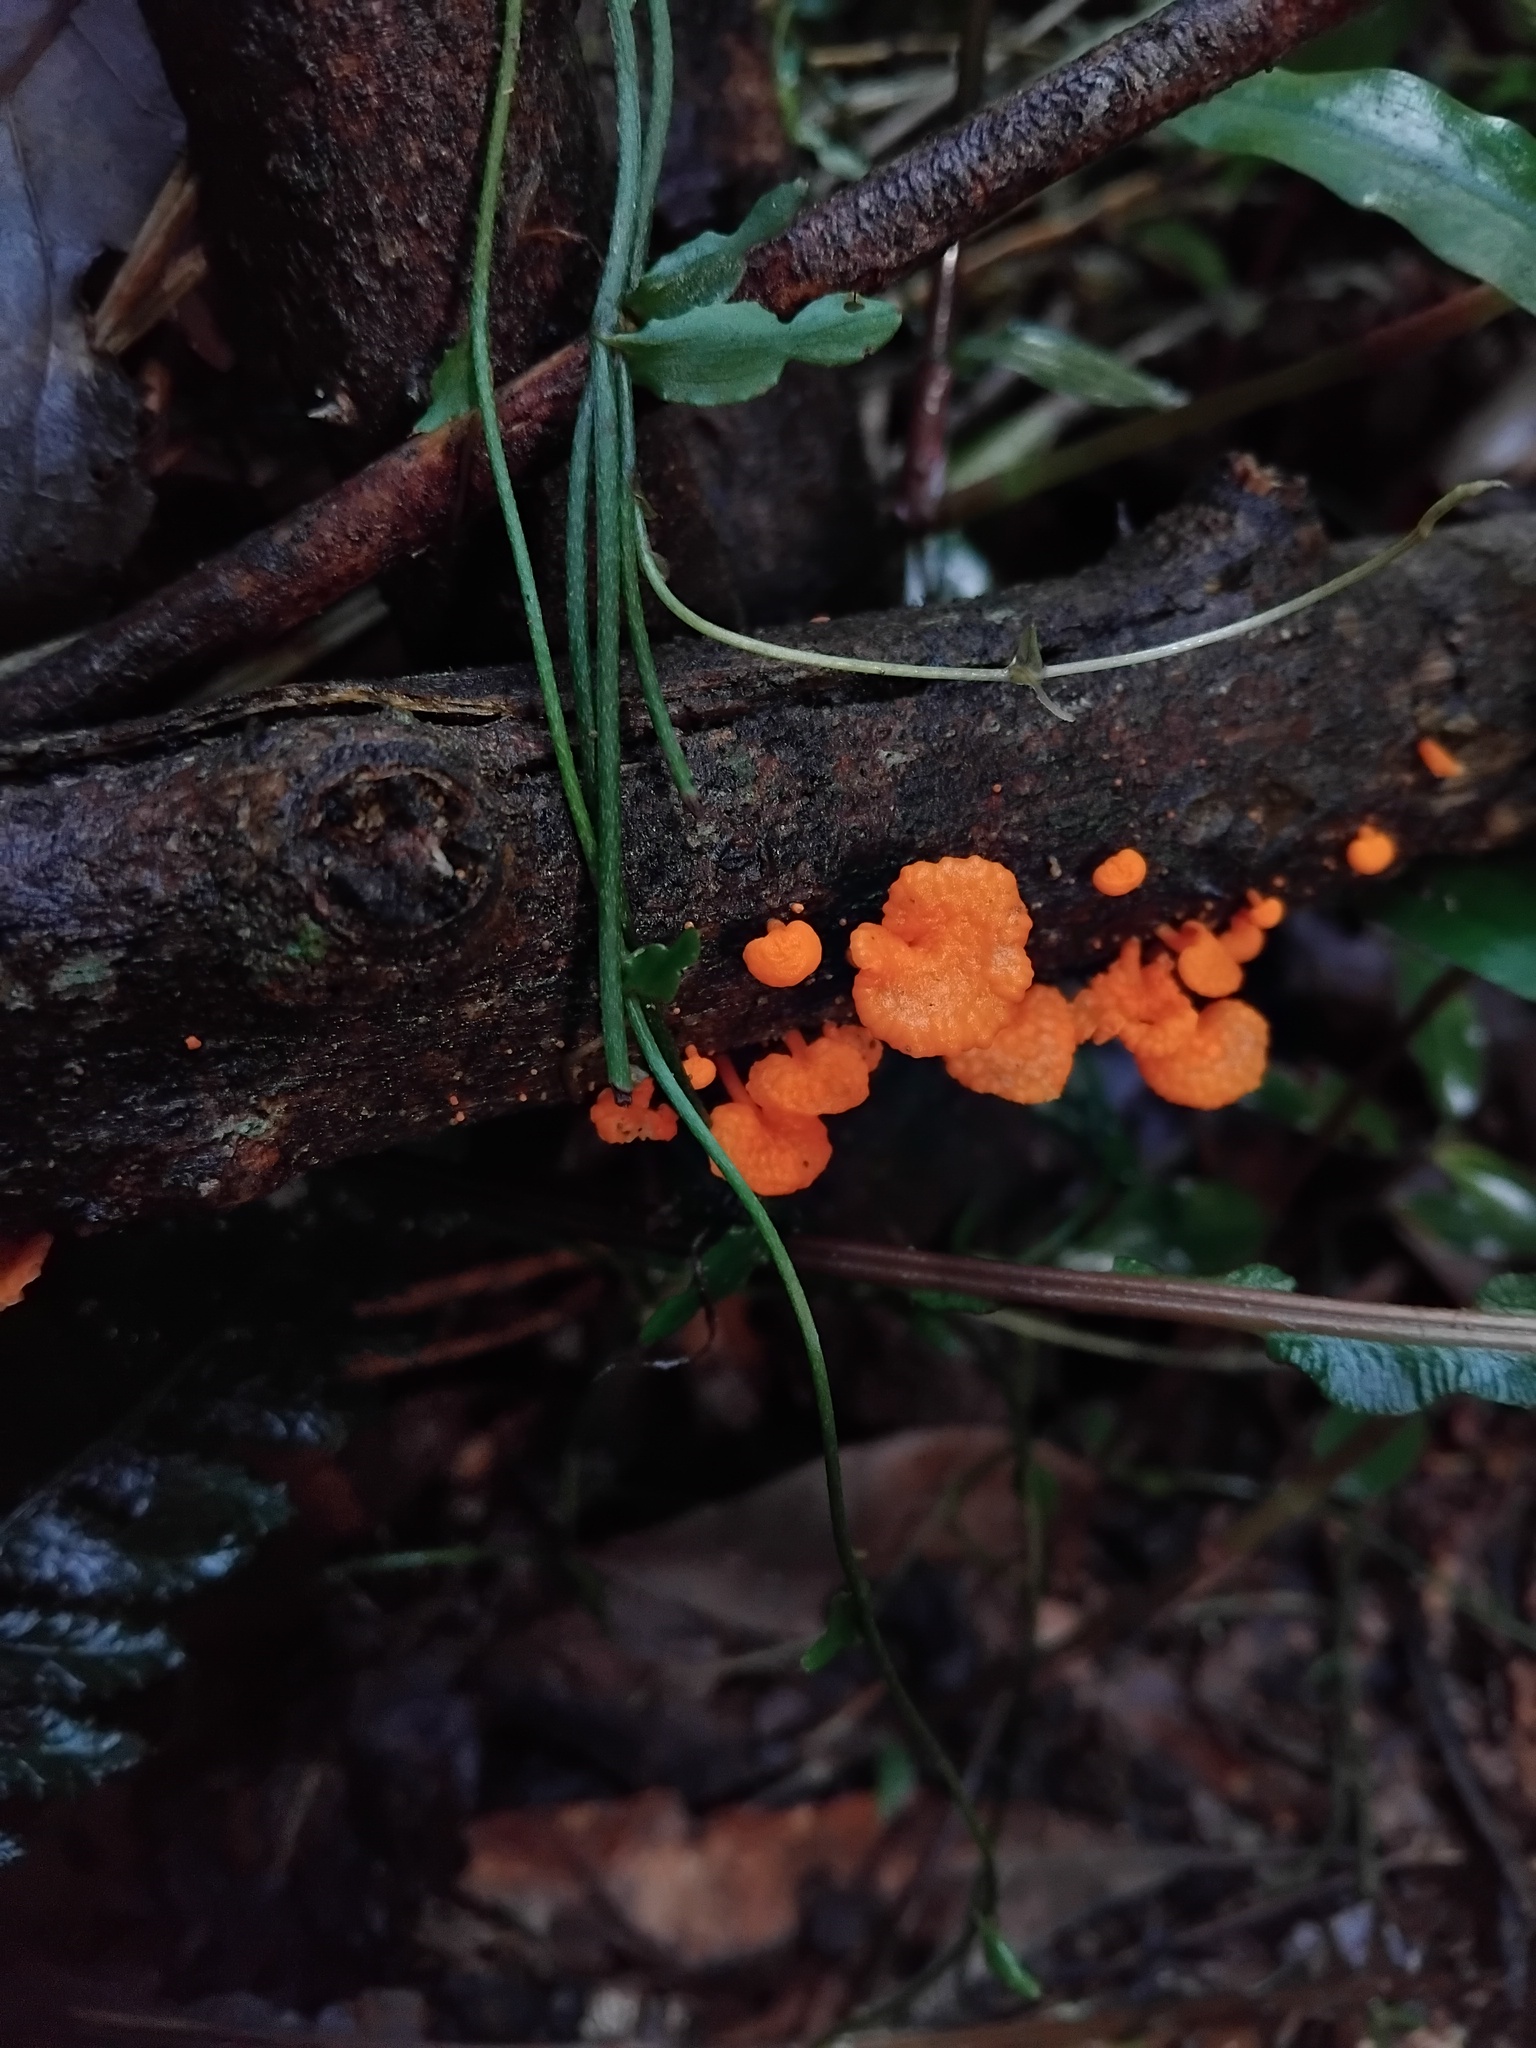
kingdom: Fungi
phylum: Basidiomycota
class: Agaricomycetes
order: Agaricales
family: Mycenaceae
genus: Favolaschia
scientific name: Favolaschia claudopus
